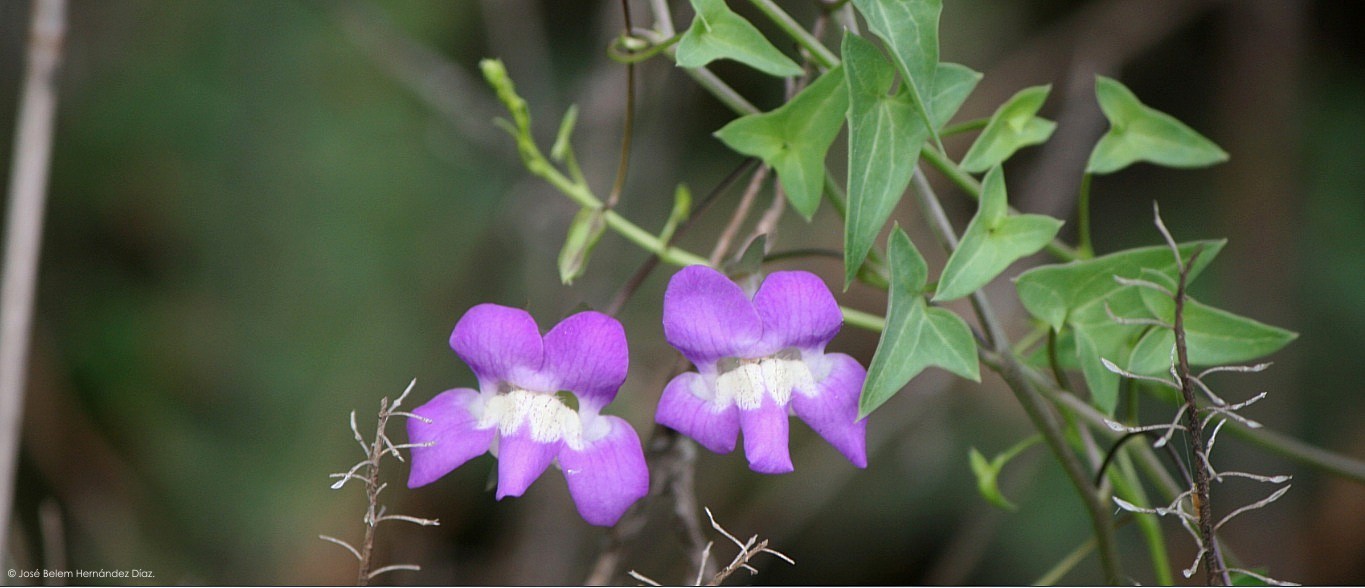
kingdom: Plantae
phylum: Tracheophyta
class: Magnoliopsida
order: Lamiales
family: Plantaginaceae
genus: Maurandella
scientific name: Maurandella antirrhiniflora
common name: Violet twining-snapdragon
